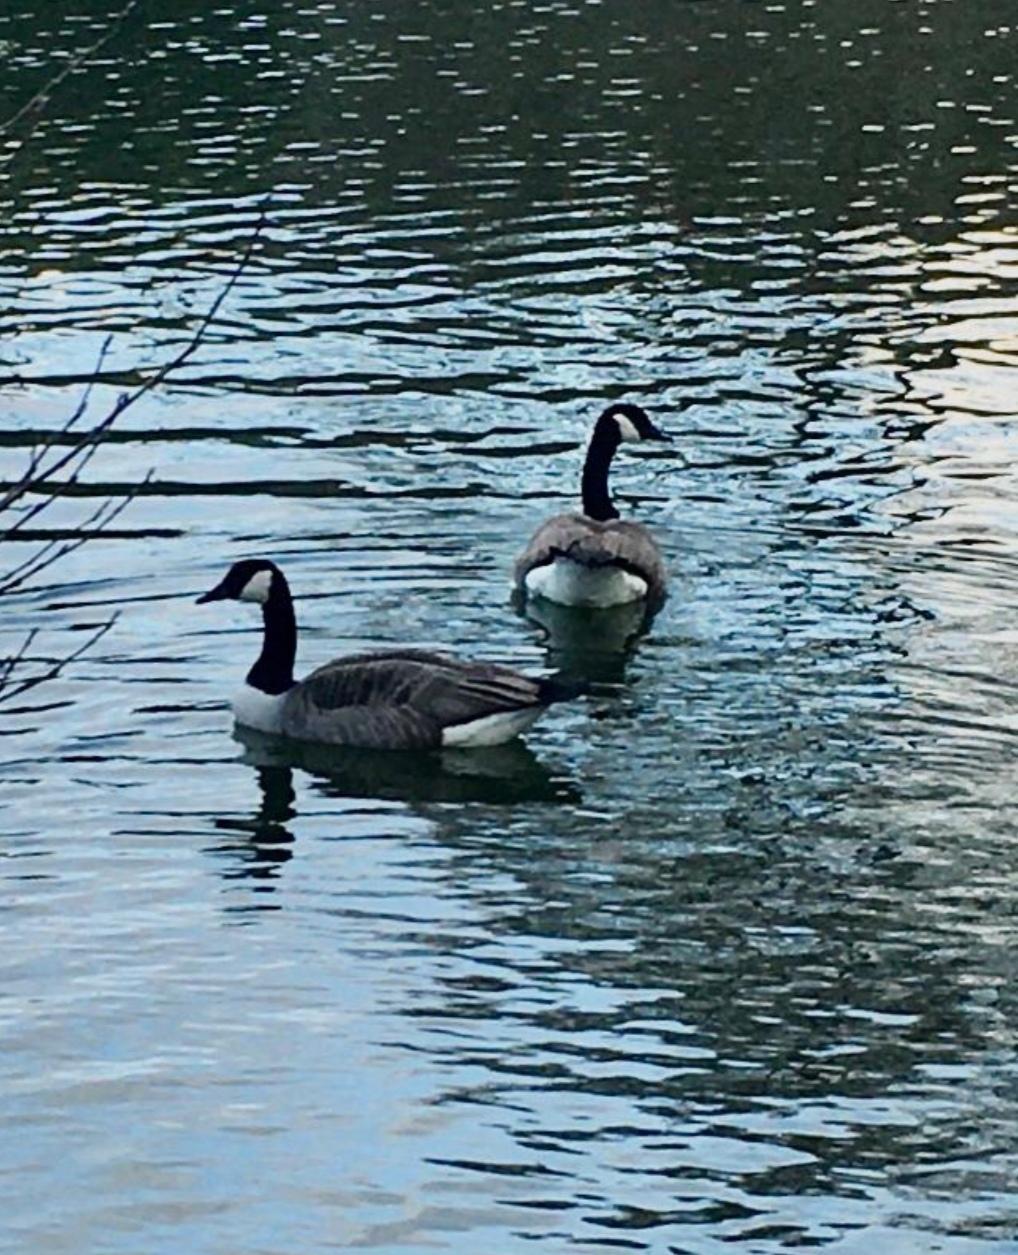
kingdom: Animalia
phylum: Chordata
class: Aves
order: Anseriformes
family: Anatidae
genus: Branta
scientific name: Branta canadensis
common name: Canada goose
